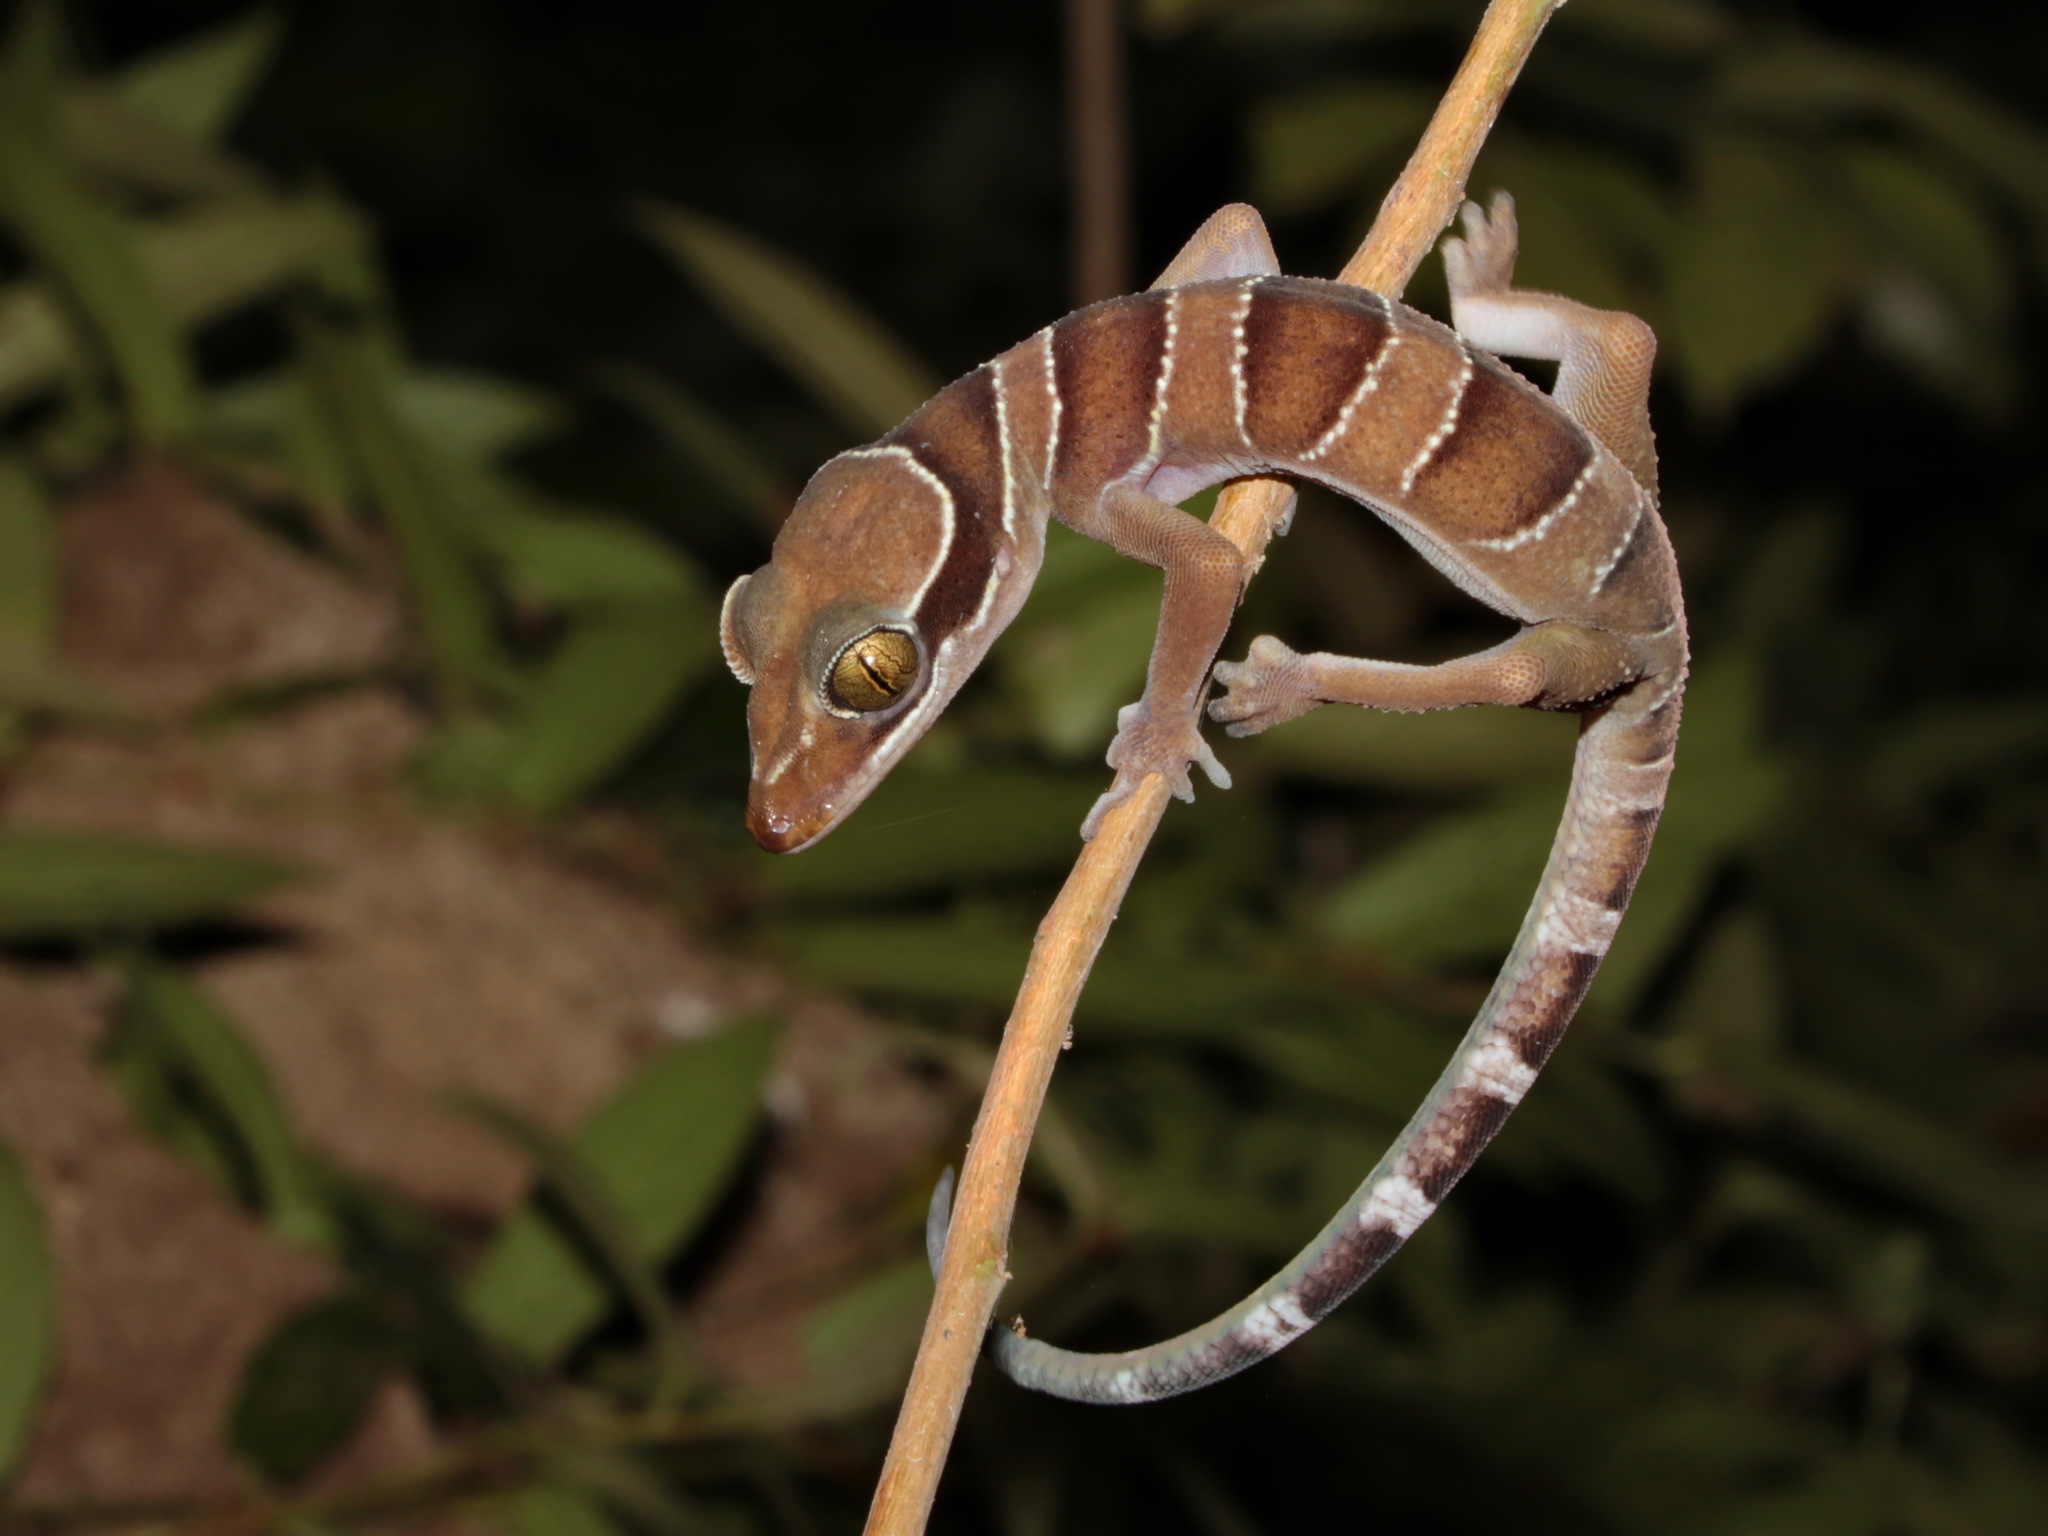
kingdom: Animalia
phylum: Chordata
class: Squamata
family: Gekkonidae
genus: Cyrtodactylus
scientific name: Cyrtodactylus bintangrendah
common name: Bintang lowland bent-toed gecko
